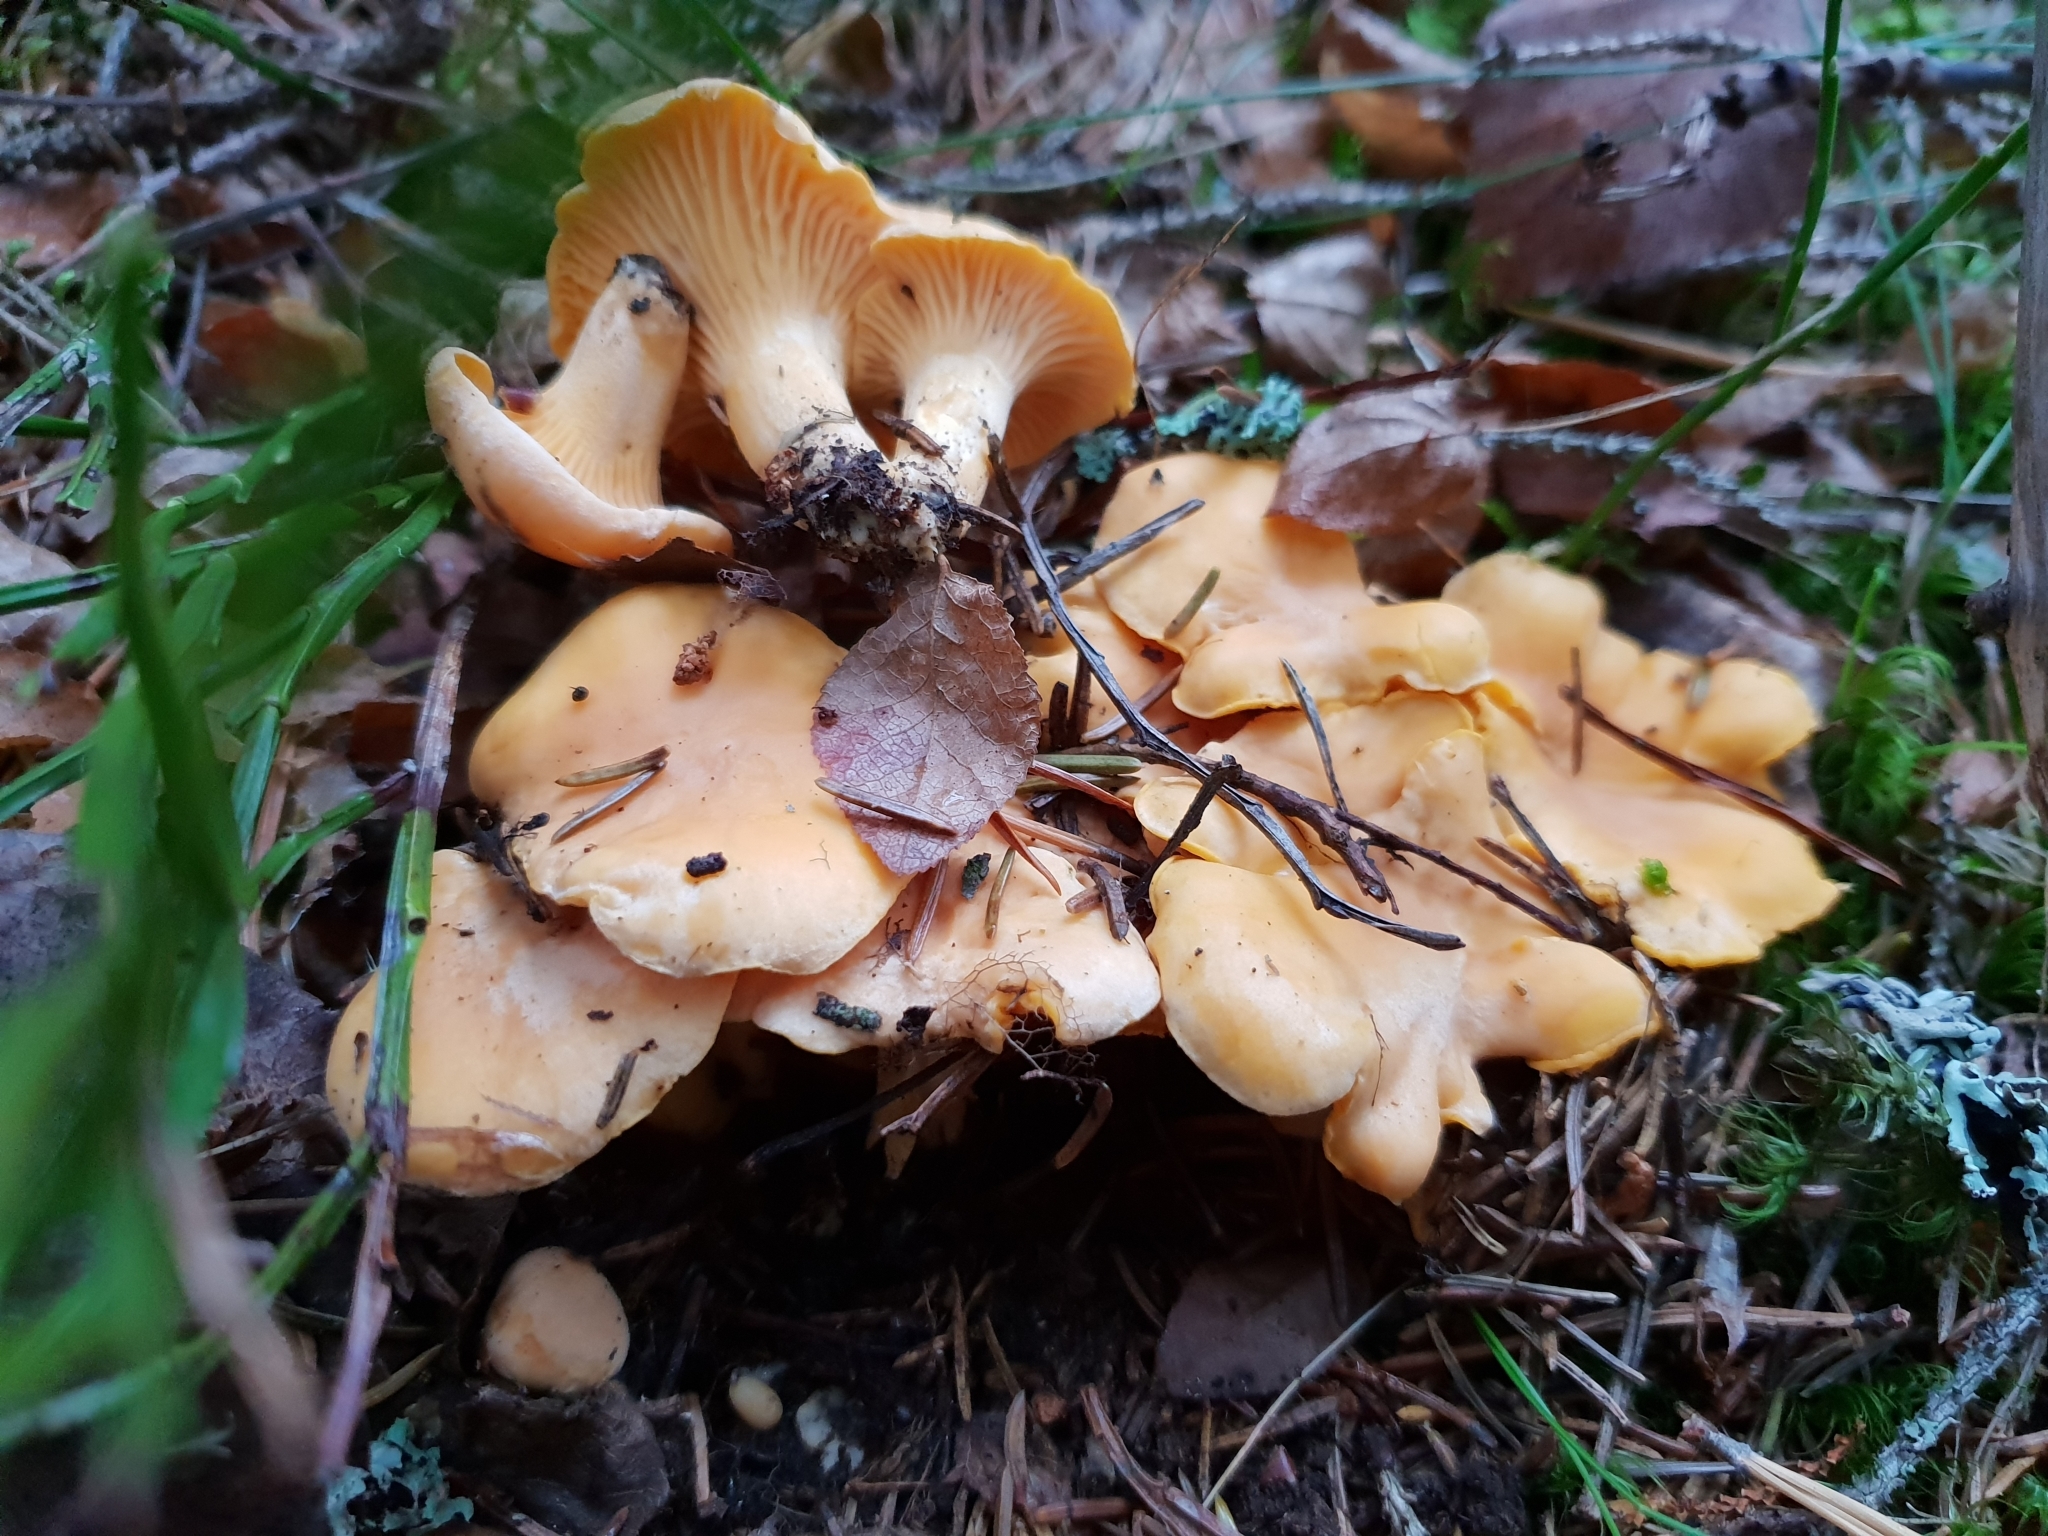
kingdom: Fungi
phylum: Basidiomycota
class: Agaricomycetes
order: Cantharellales
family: Hydnaceae
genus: Cantharellus
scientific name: Cantharellus cibarius
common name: Chanterelle
